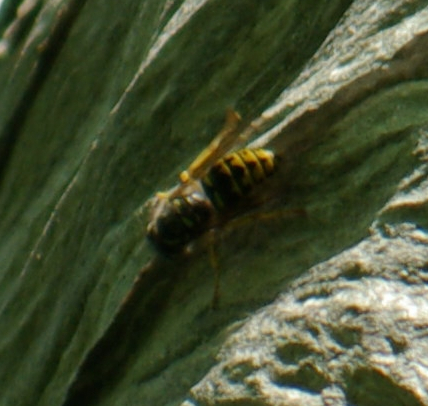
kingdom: Animalia
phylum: Arthropoda
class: Insecta
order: Hymenoptera
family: Vespidae
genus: Dolichovespula
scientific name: Dolichovespula arenaria
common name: Aerial yellowjacket
